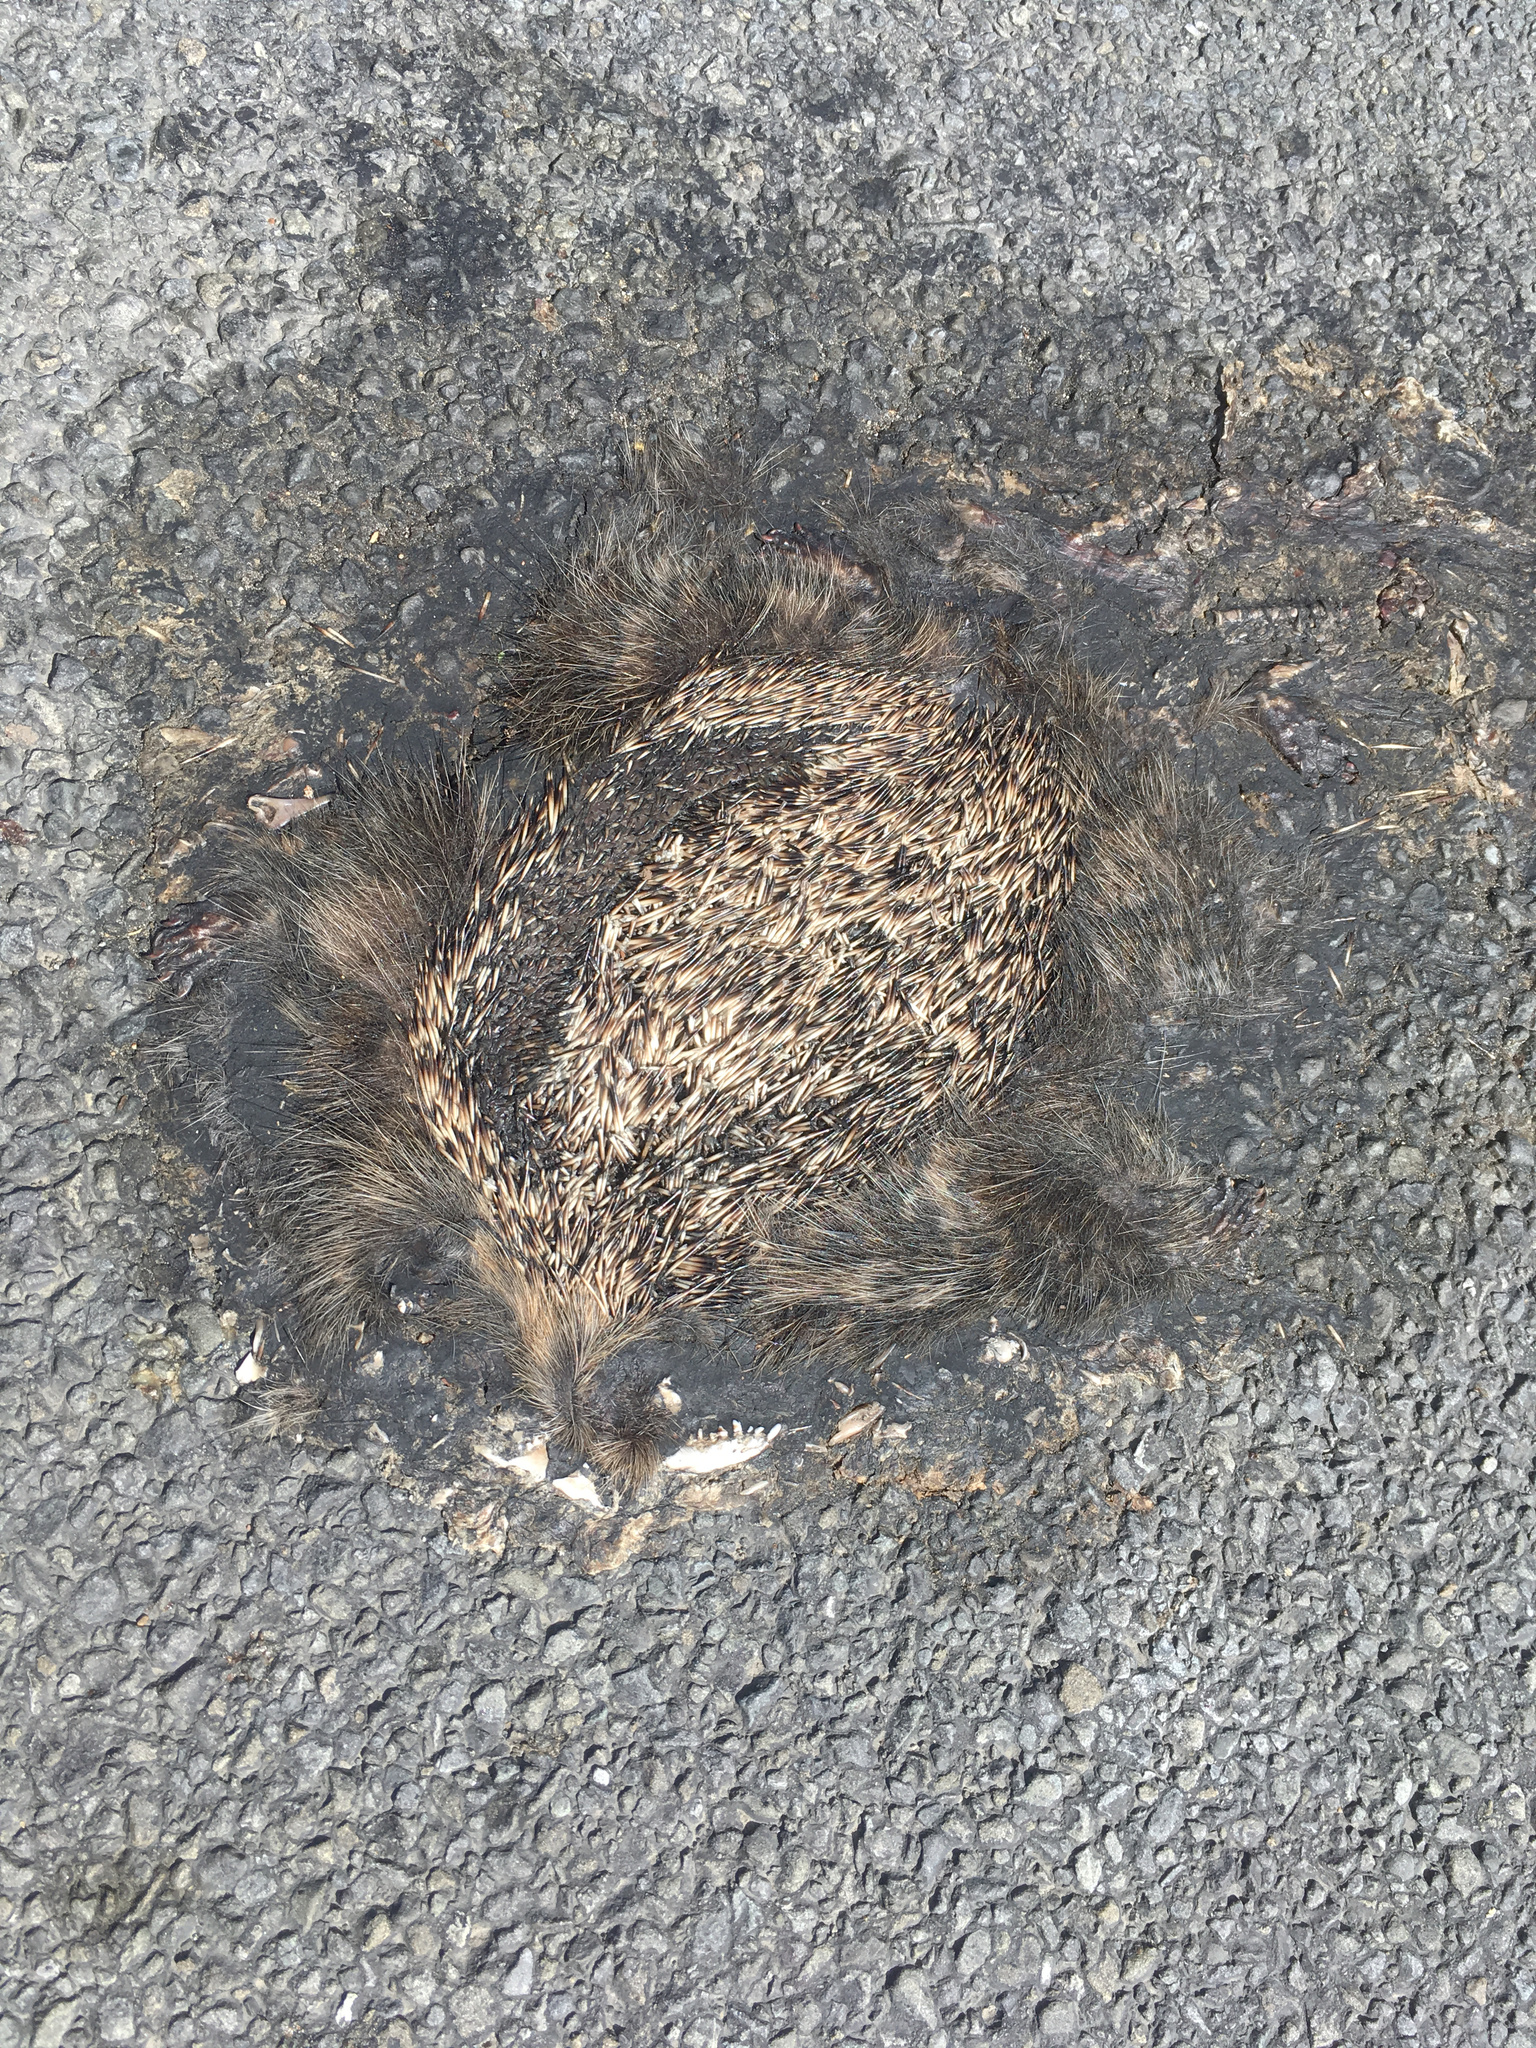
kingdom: Animalia
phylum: Chordata
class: Mammalia
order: Erinaceomorpha
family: Erinaceidae
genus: Erinaceus
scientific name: Erinaceus europaeus
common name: West european hedgehog
